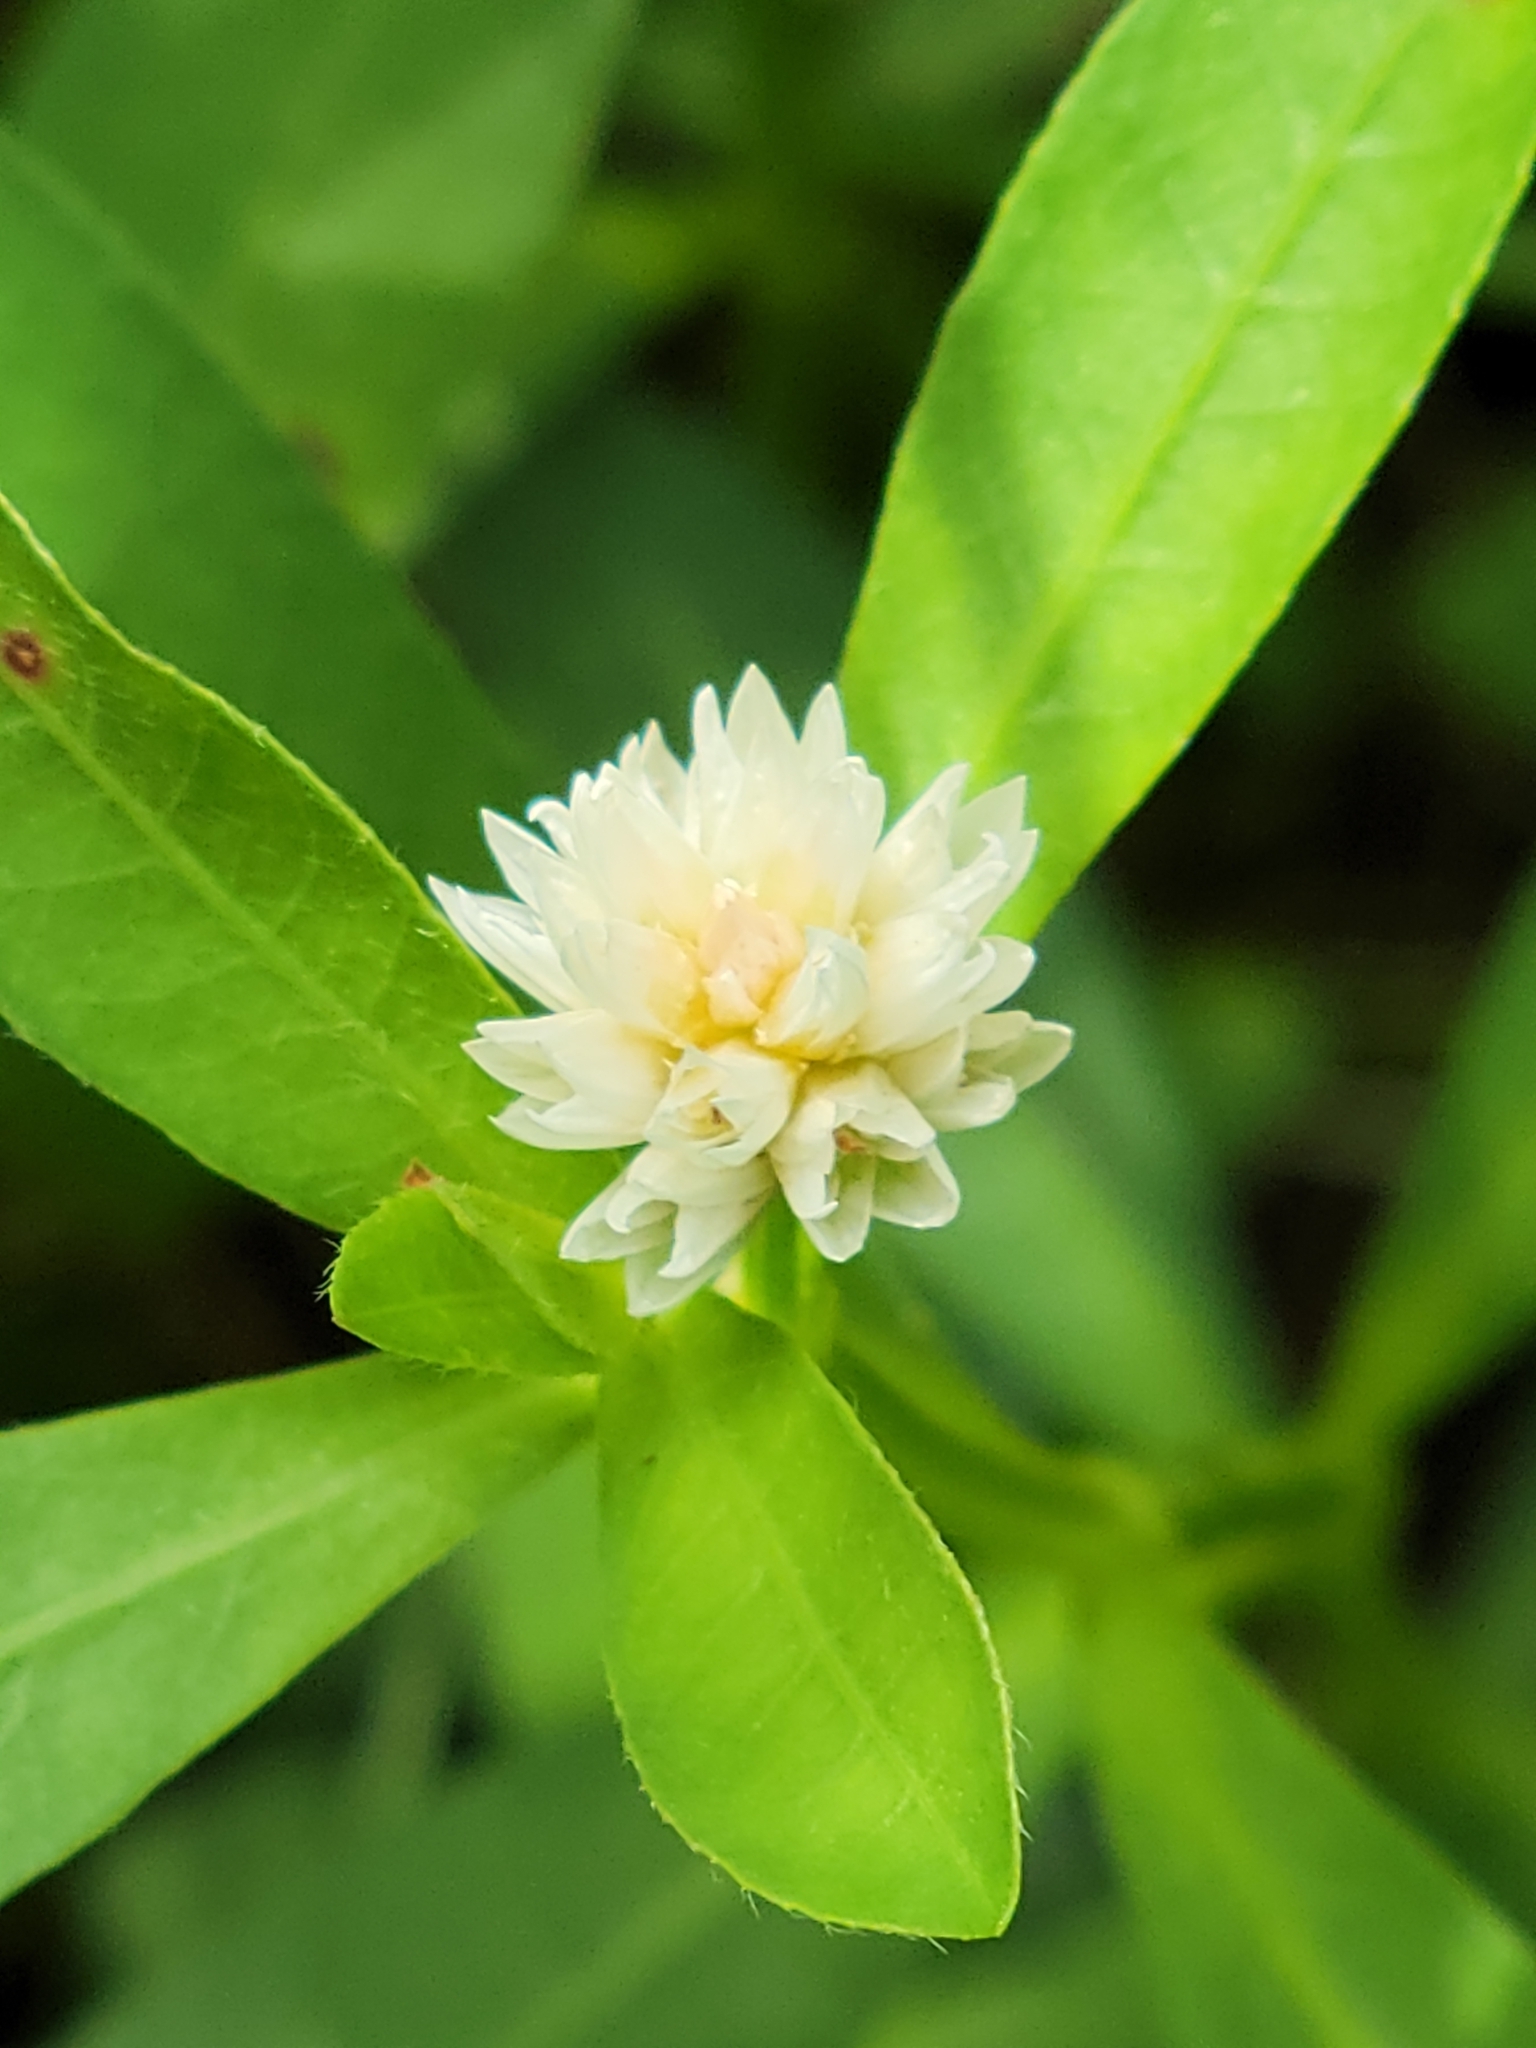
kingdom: Plantae
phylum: Tracheophyta
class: Magnoliopsida
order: Caryophyllales
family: Amaranthaceae
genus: Alternanthera
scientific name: Alternanthera philoxeroides
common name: Alligatorweed
